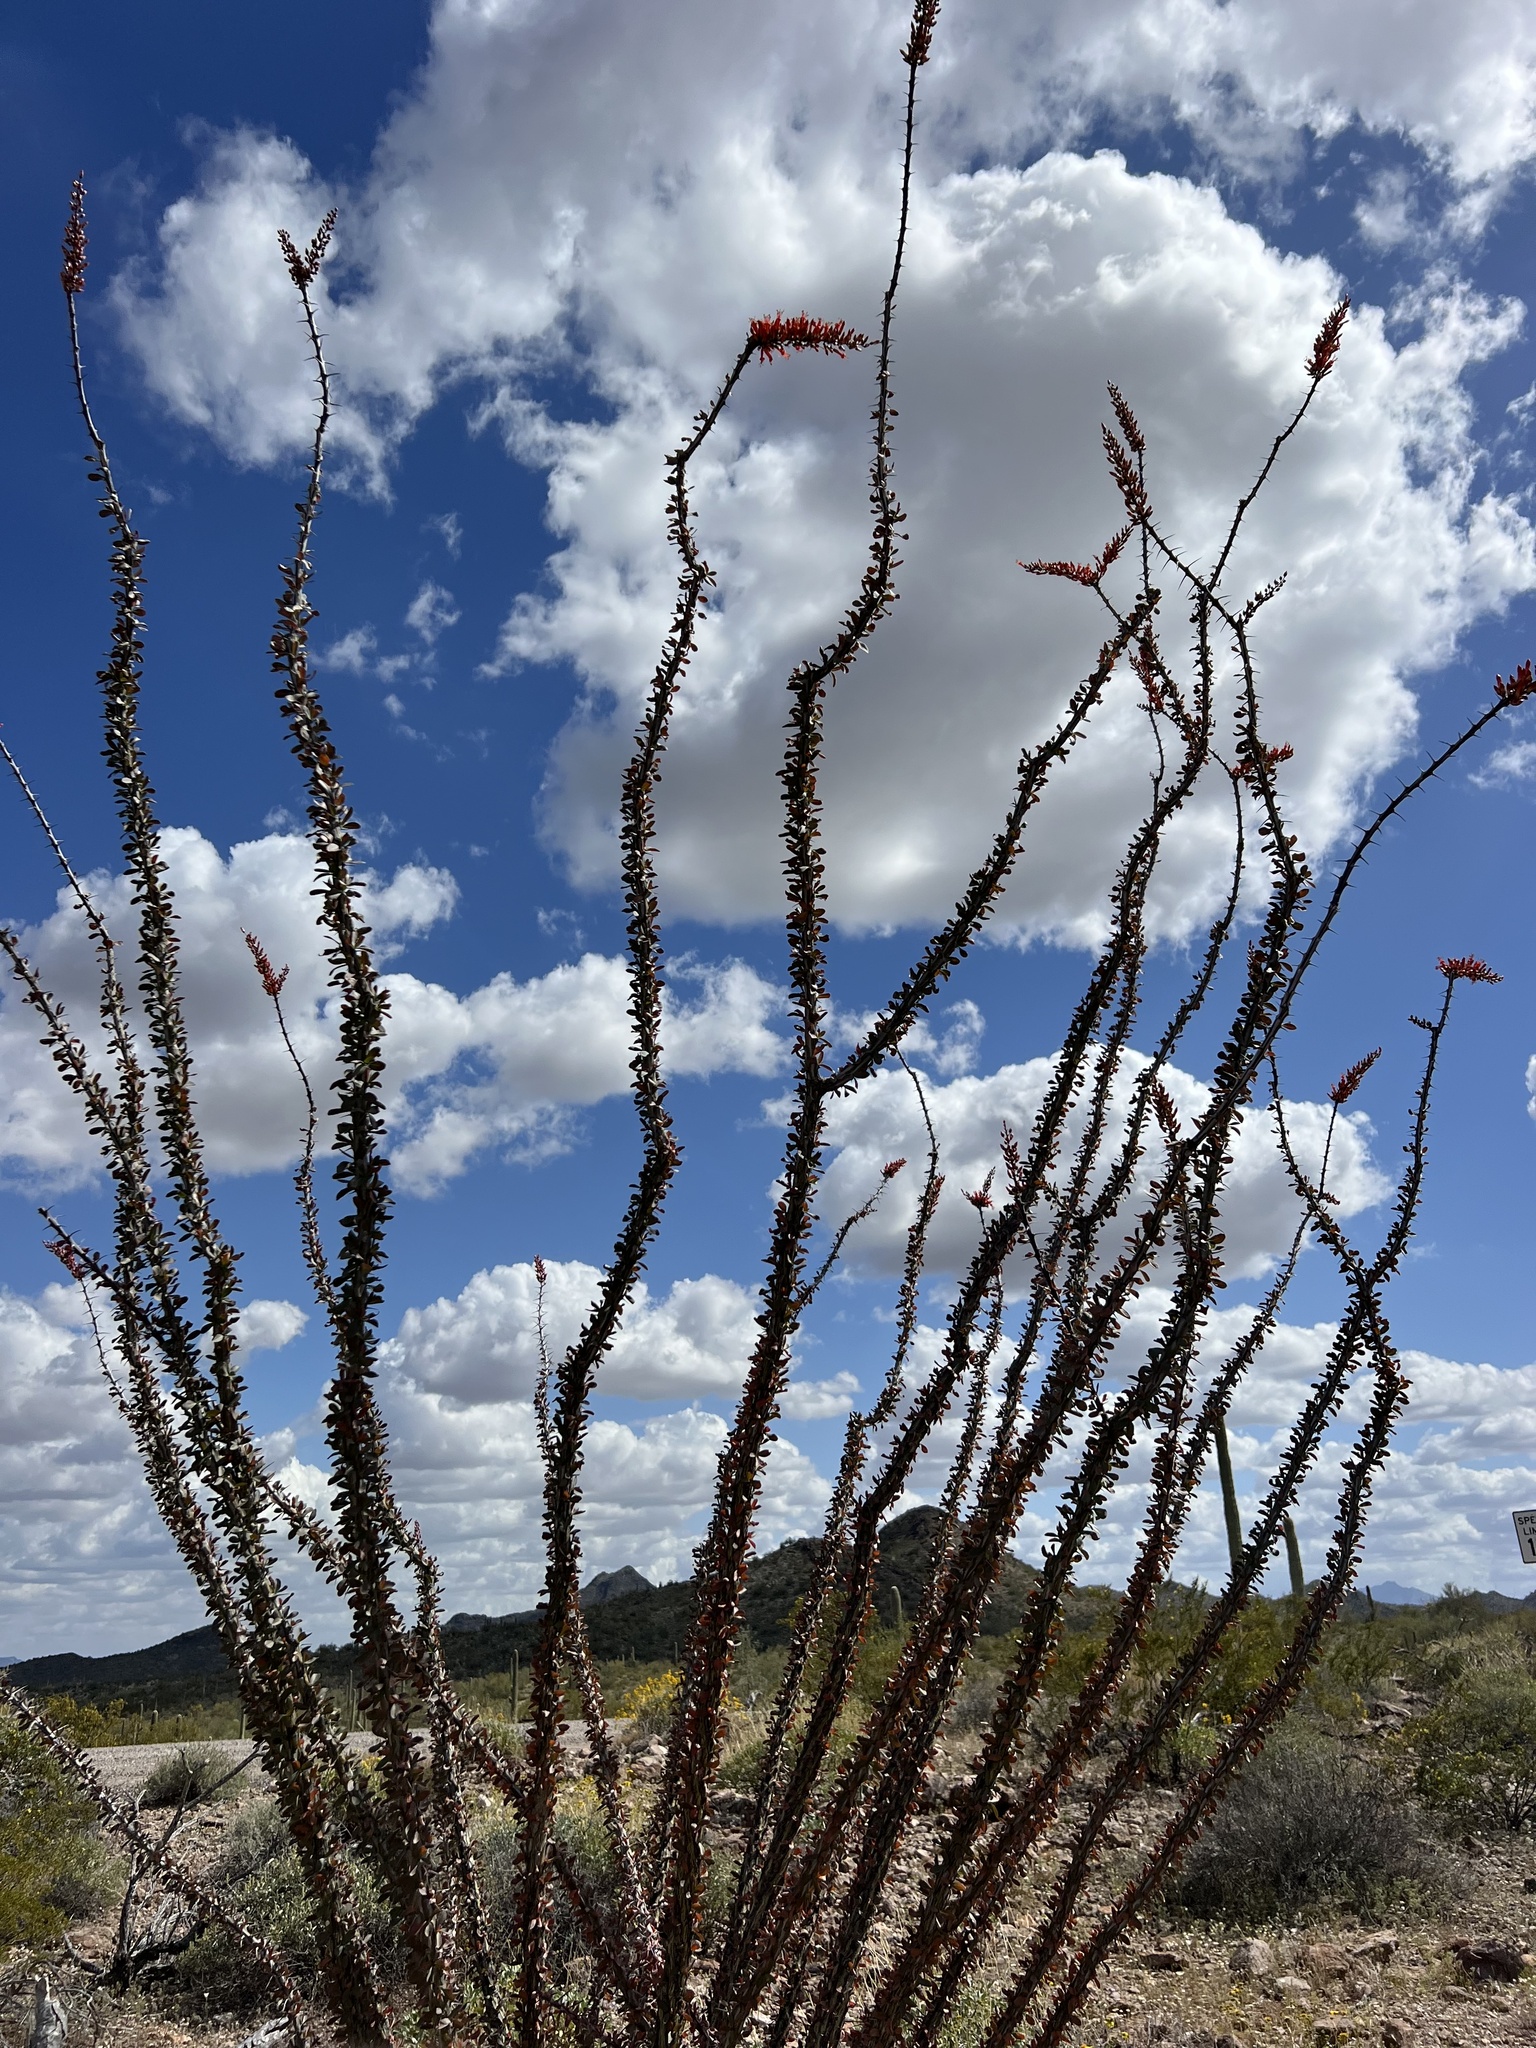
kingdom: Plantae
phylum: Tracheophyta
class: Magnoliopsida
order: Ericales
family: Fouquieriaceae
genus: Fouquieria
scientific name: Fouquieria splendens
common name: Vine-cactus
